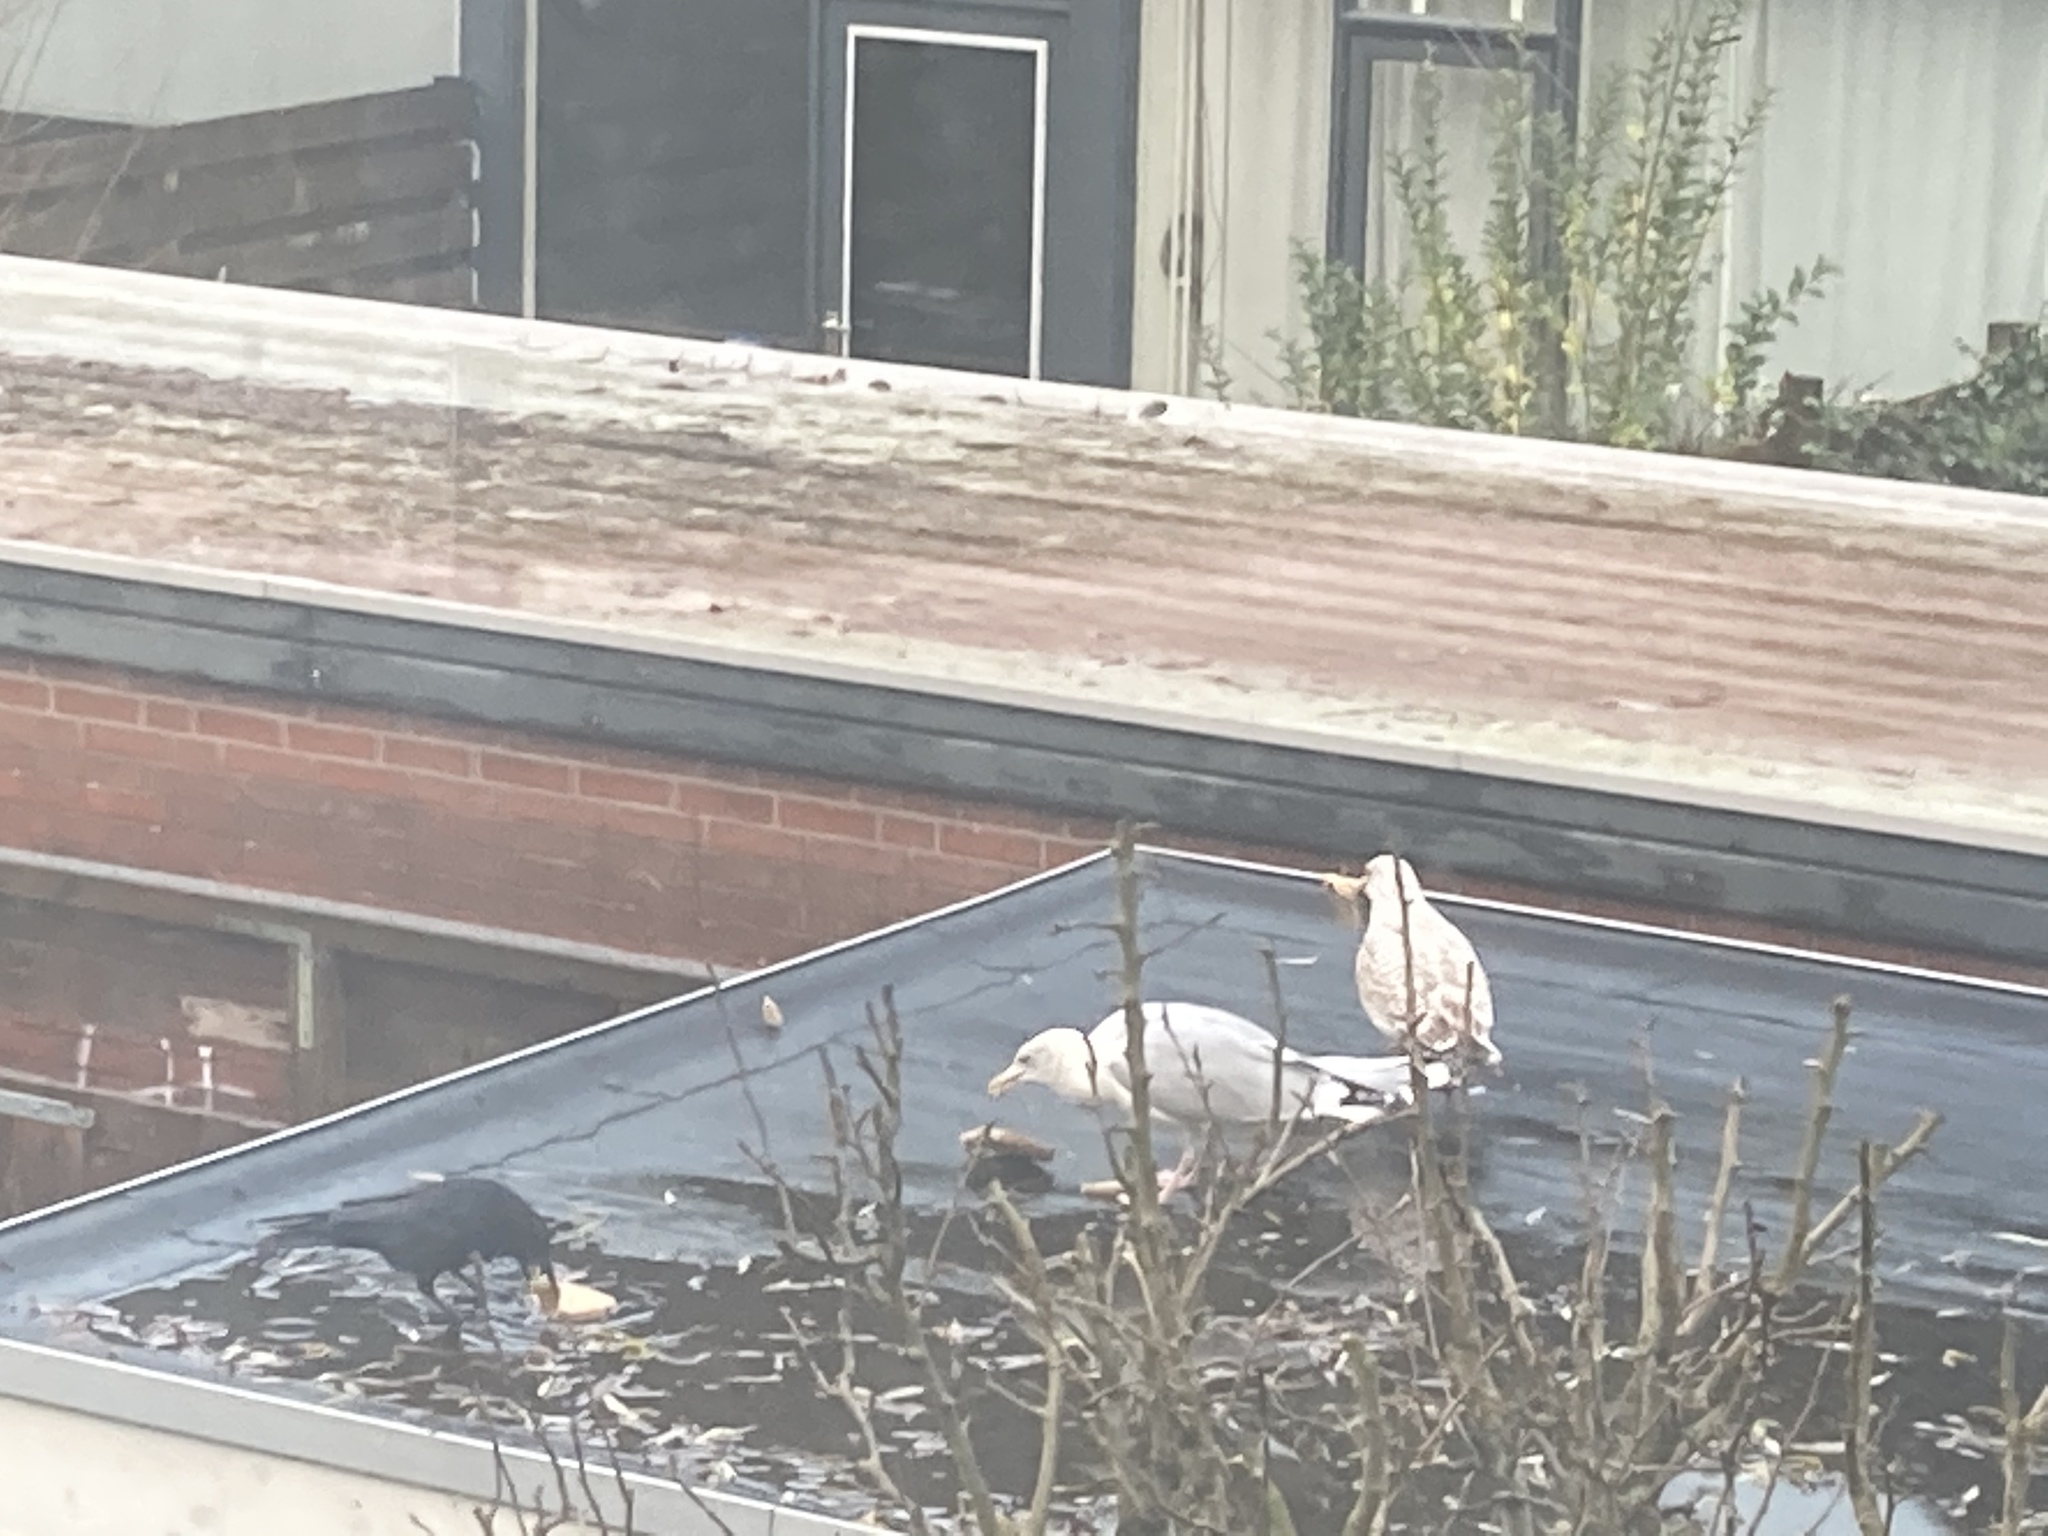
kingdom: Animalia
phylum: Chordata
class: Aves
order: Charadriiformes
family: Laridae
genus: Larus
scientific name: Larus argentatus
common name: Herring gull
